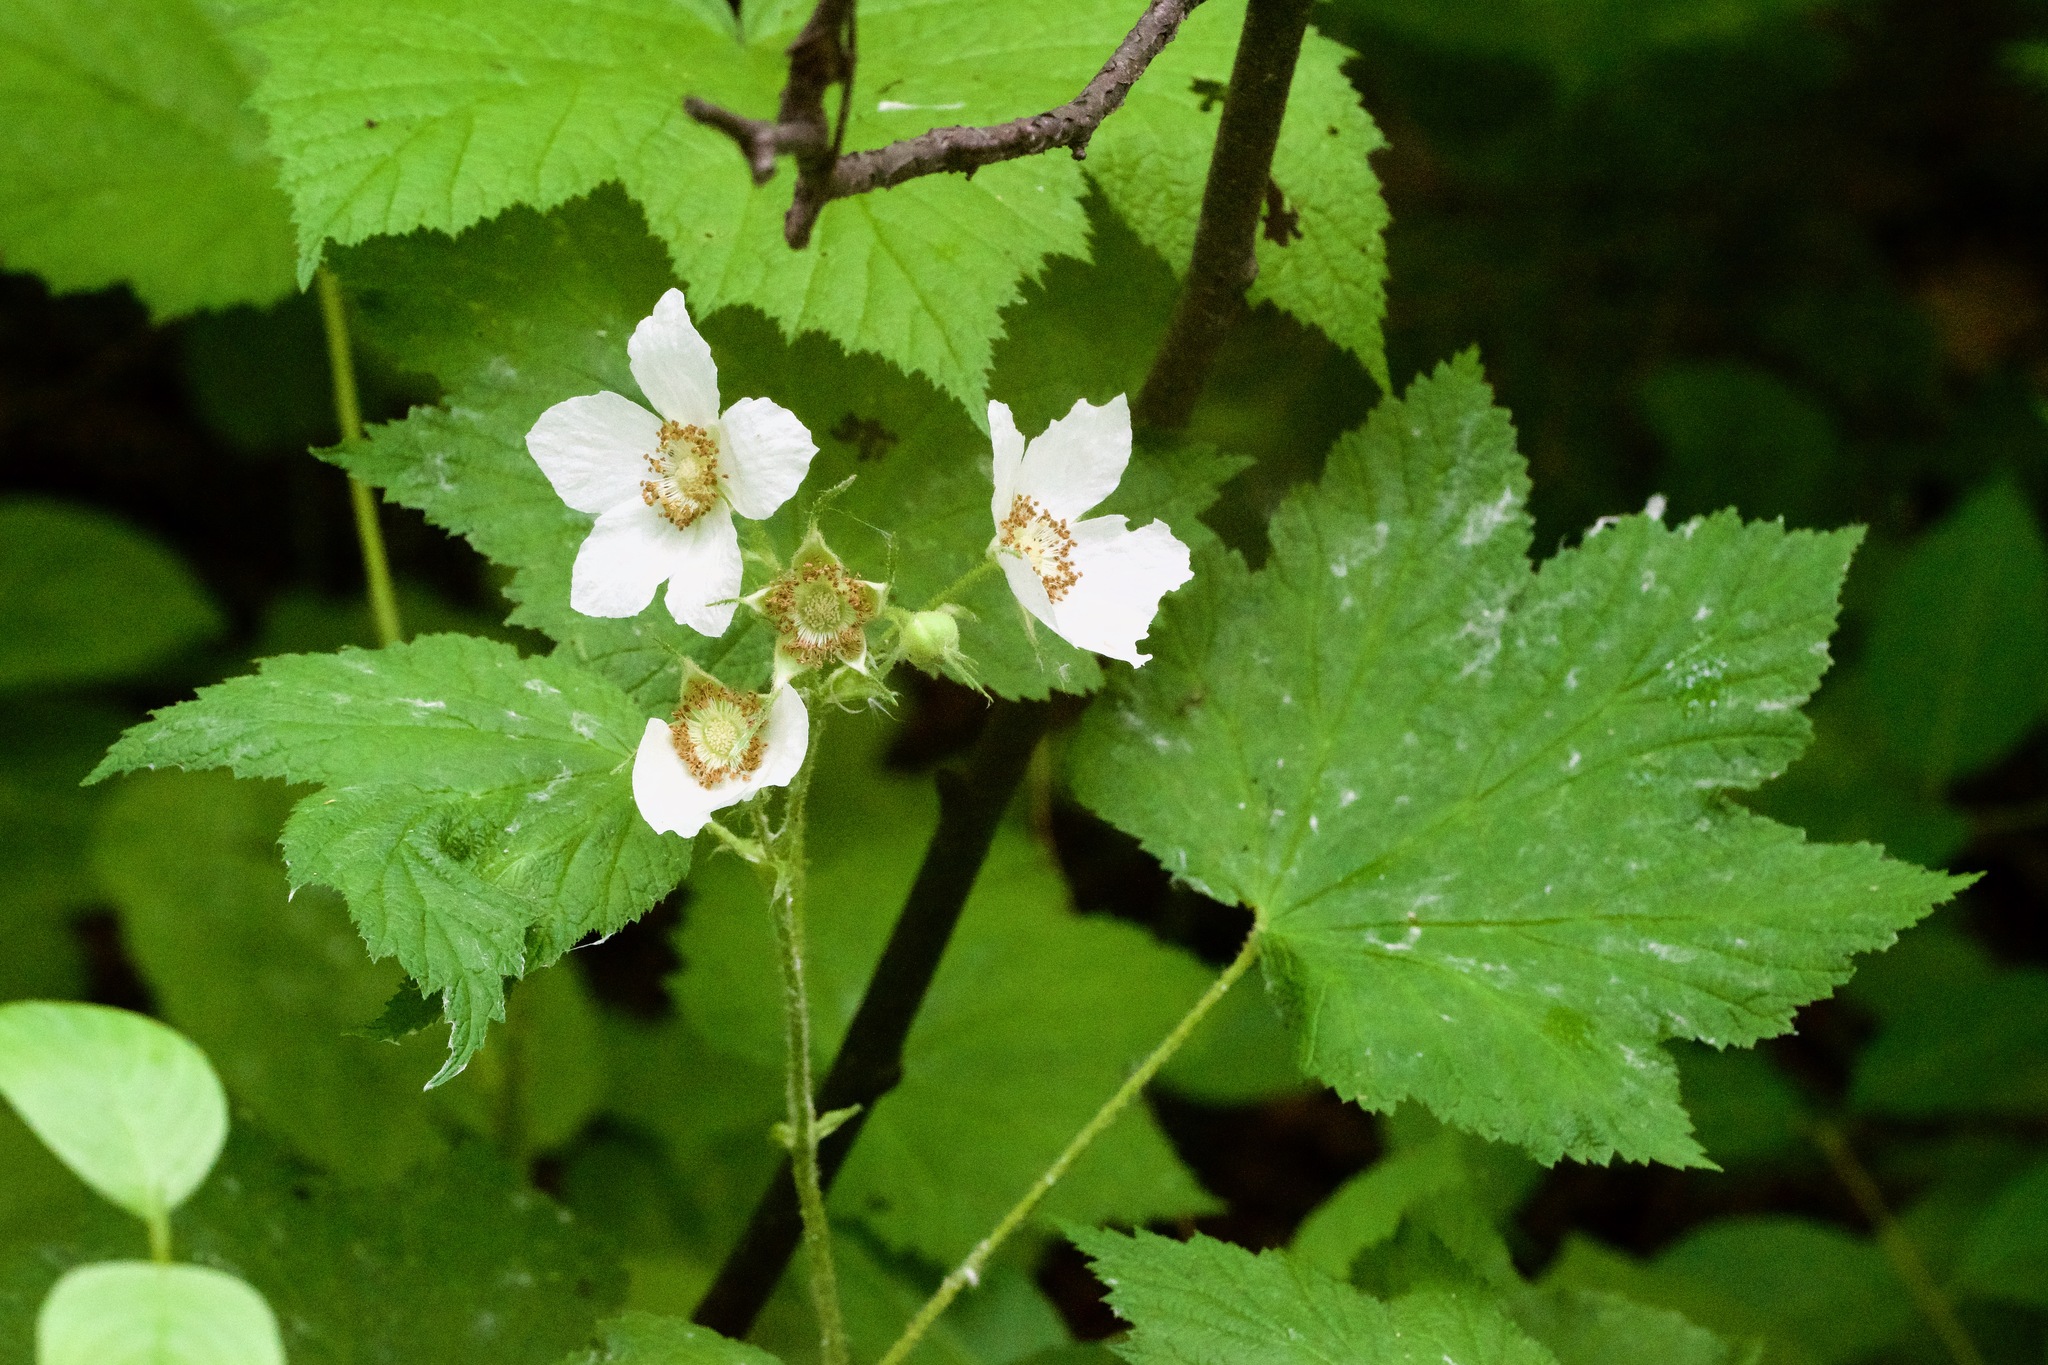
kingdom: Plantae
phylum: Tracheophyta
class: Magnoliopsida
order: Rosales
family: Rosaceae
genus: Rubus
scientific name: Rubus parviflorus
